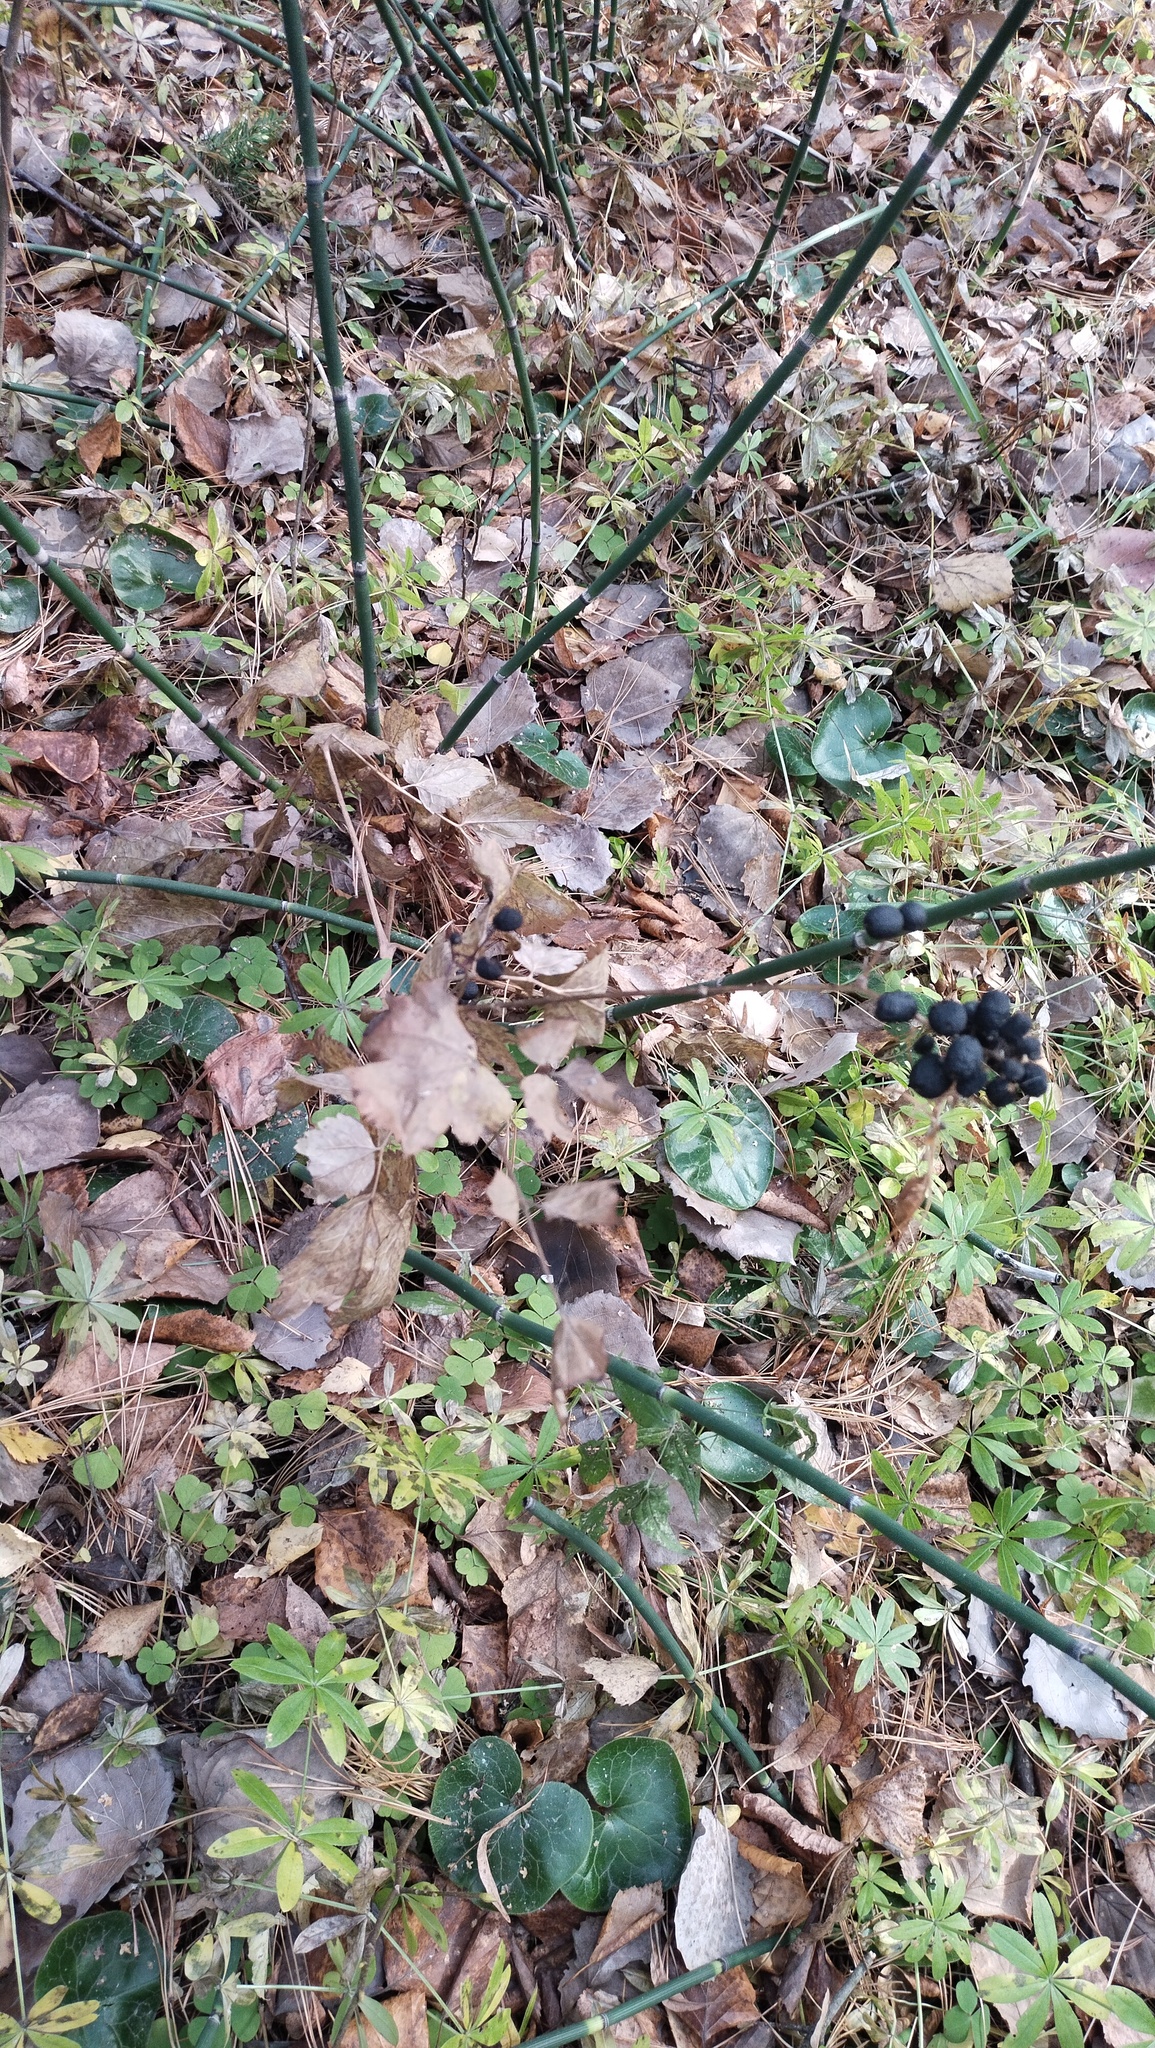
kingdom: Plantae
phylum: Tracheophyta
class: Magnoliopsida
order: Ranunculales
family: Ranunculaceae
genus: Actaea
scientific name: Actaea spicata
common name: Baneberry
